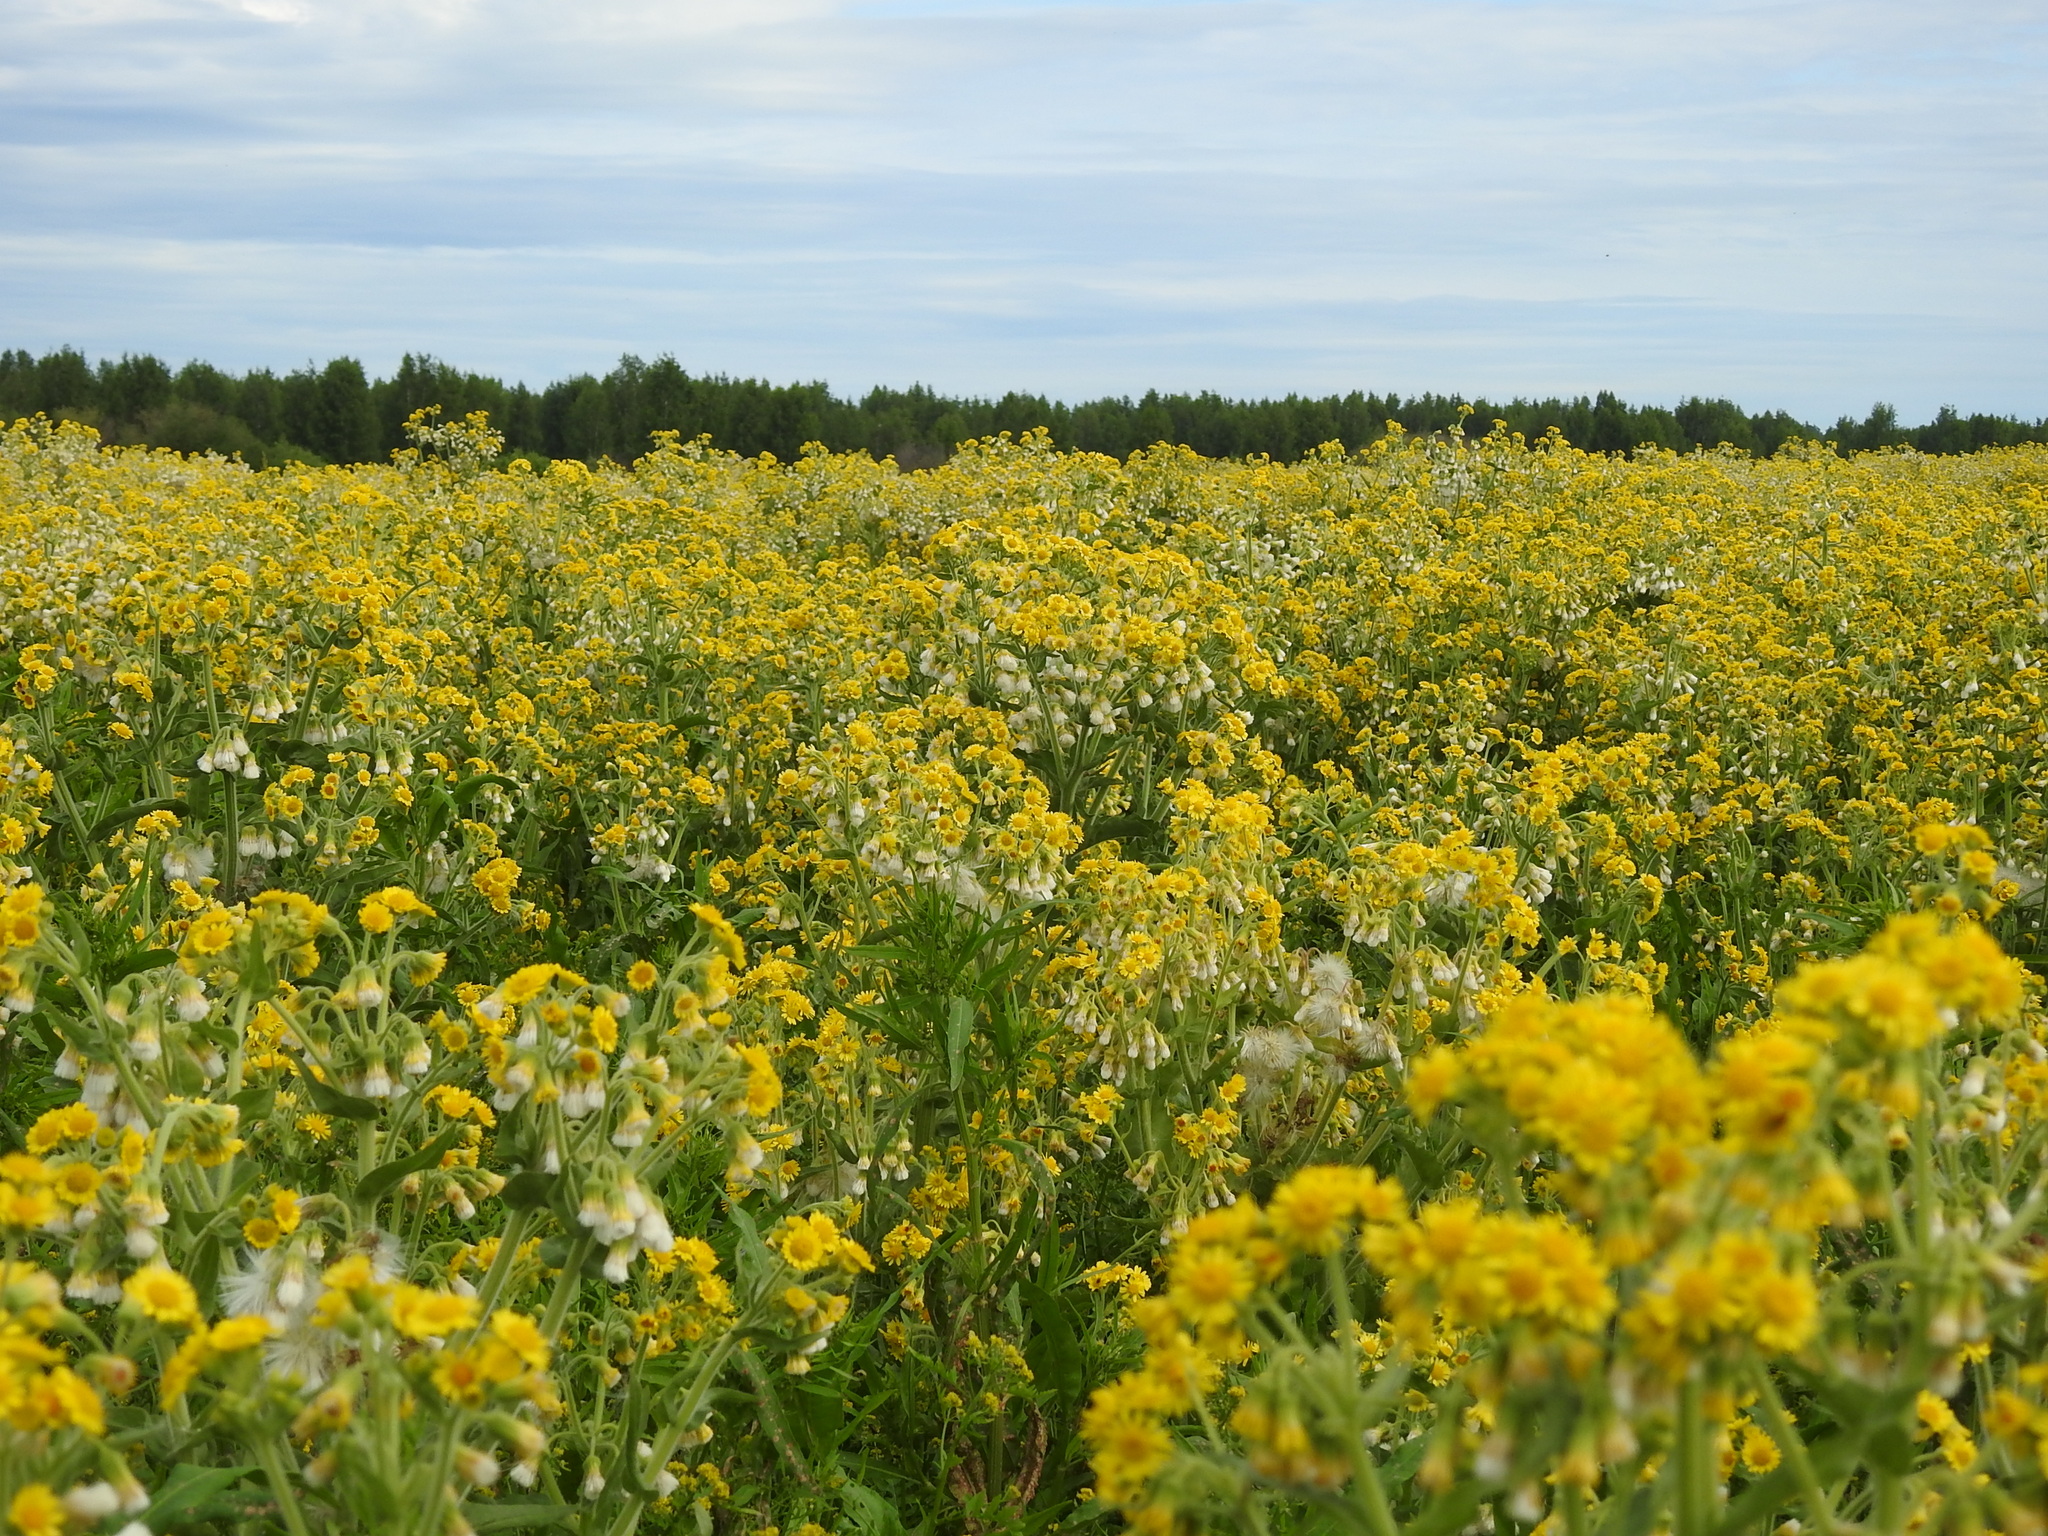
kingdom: Plantae
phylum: Tracheophyta
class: Magnoliopsida
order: Asterales
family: Asteraceae
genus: Tephroseris
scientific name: Tephroseris palustris
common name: Marsh fleawort
